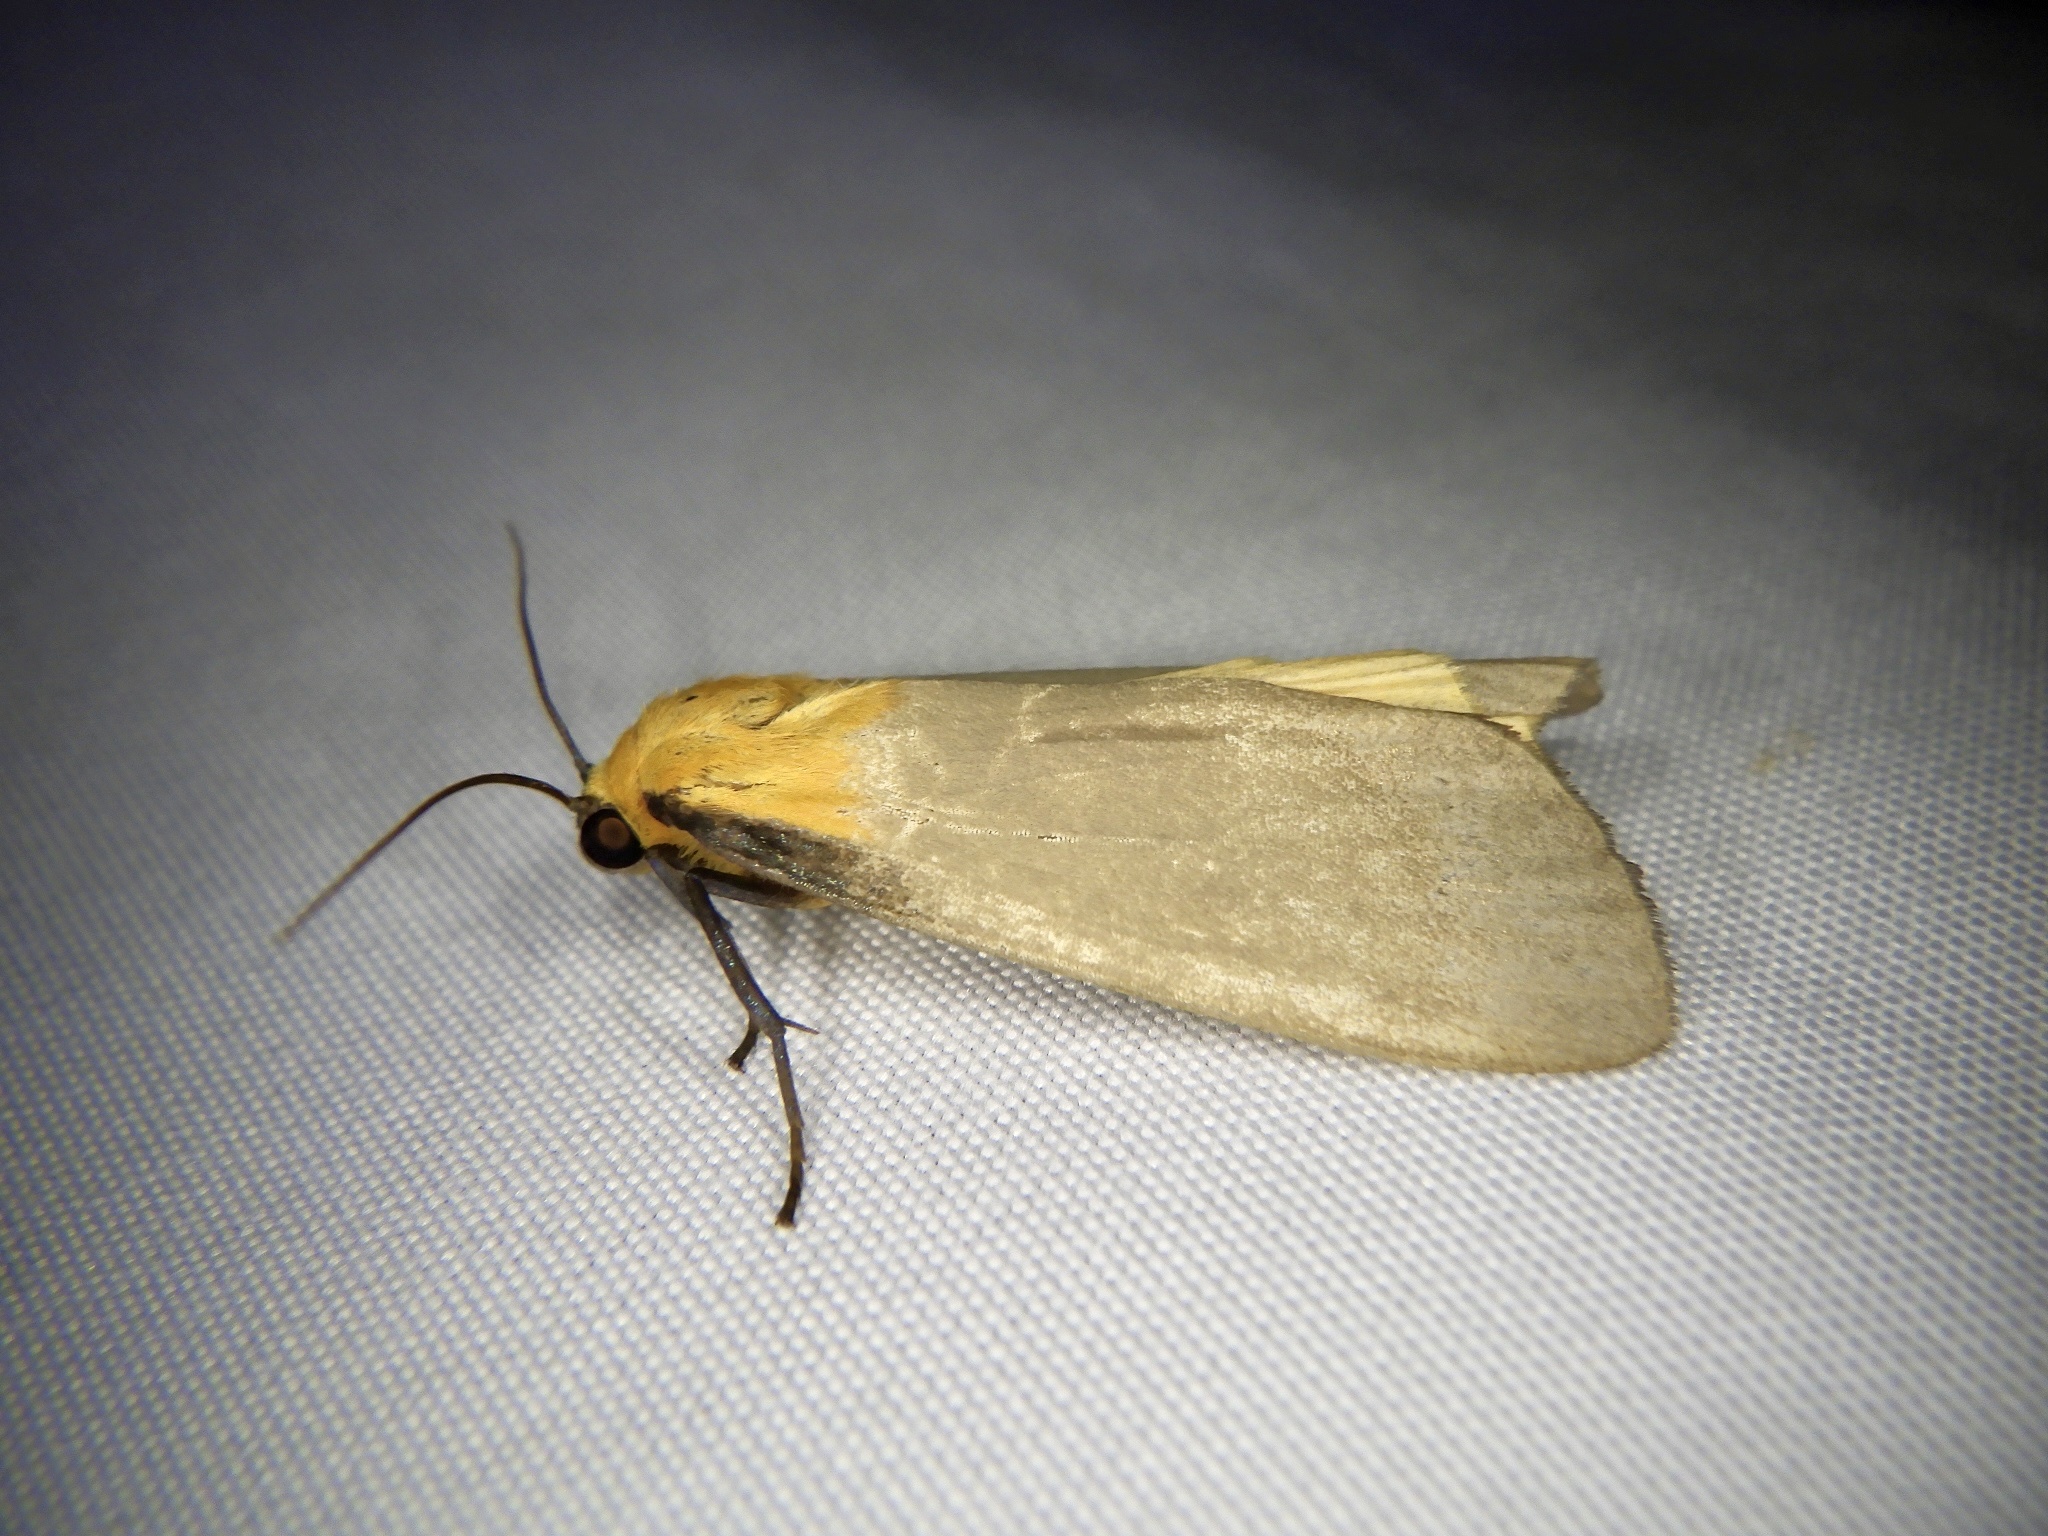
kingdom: Animalia
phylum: Arthropoda
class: Insecta
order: Lepidoptera
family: Erebidae
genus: Lithosia
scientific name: Lithosia quadra
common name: Four-spotted footman
